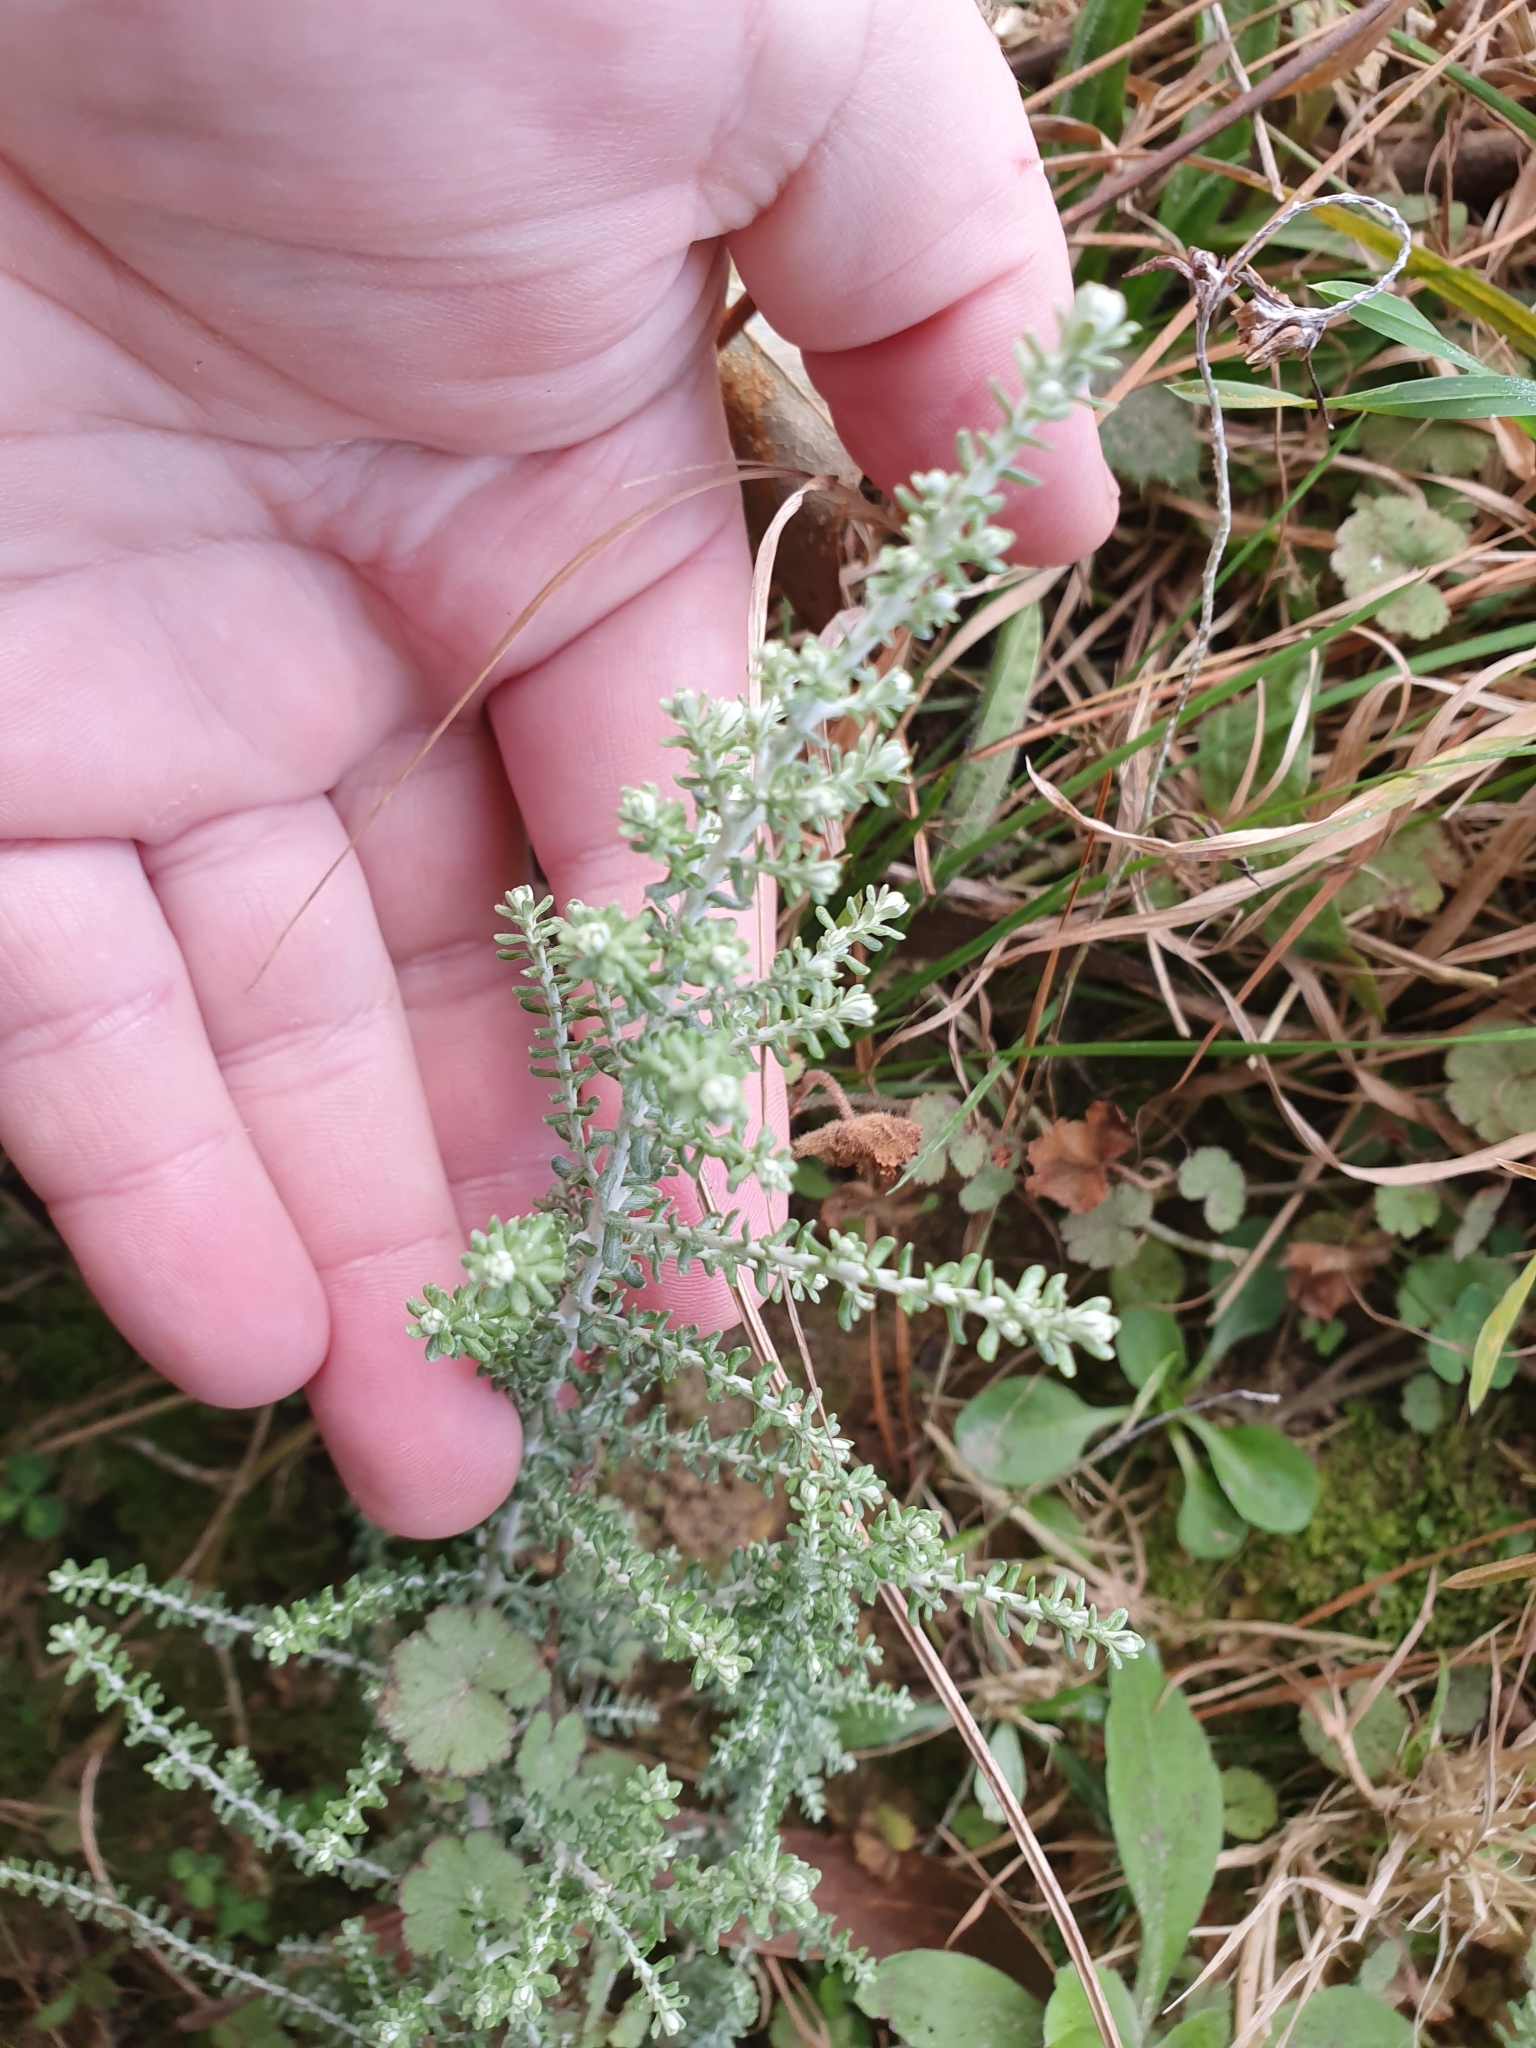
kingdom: Plantae
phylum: Tracheophyta
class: Magnoliopsida
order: Asterales
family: Asteraceae
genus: Ozothamnus
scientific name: Ozothamnus leptophyllus
